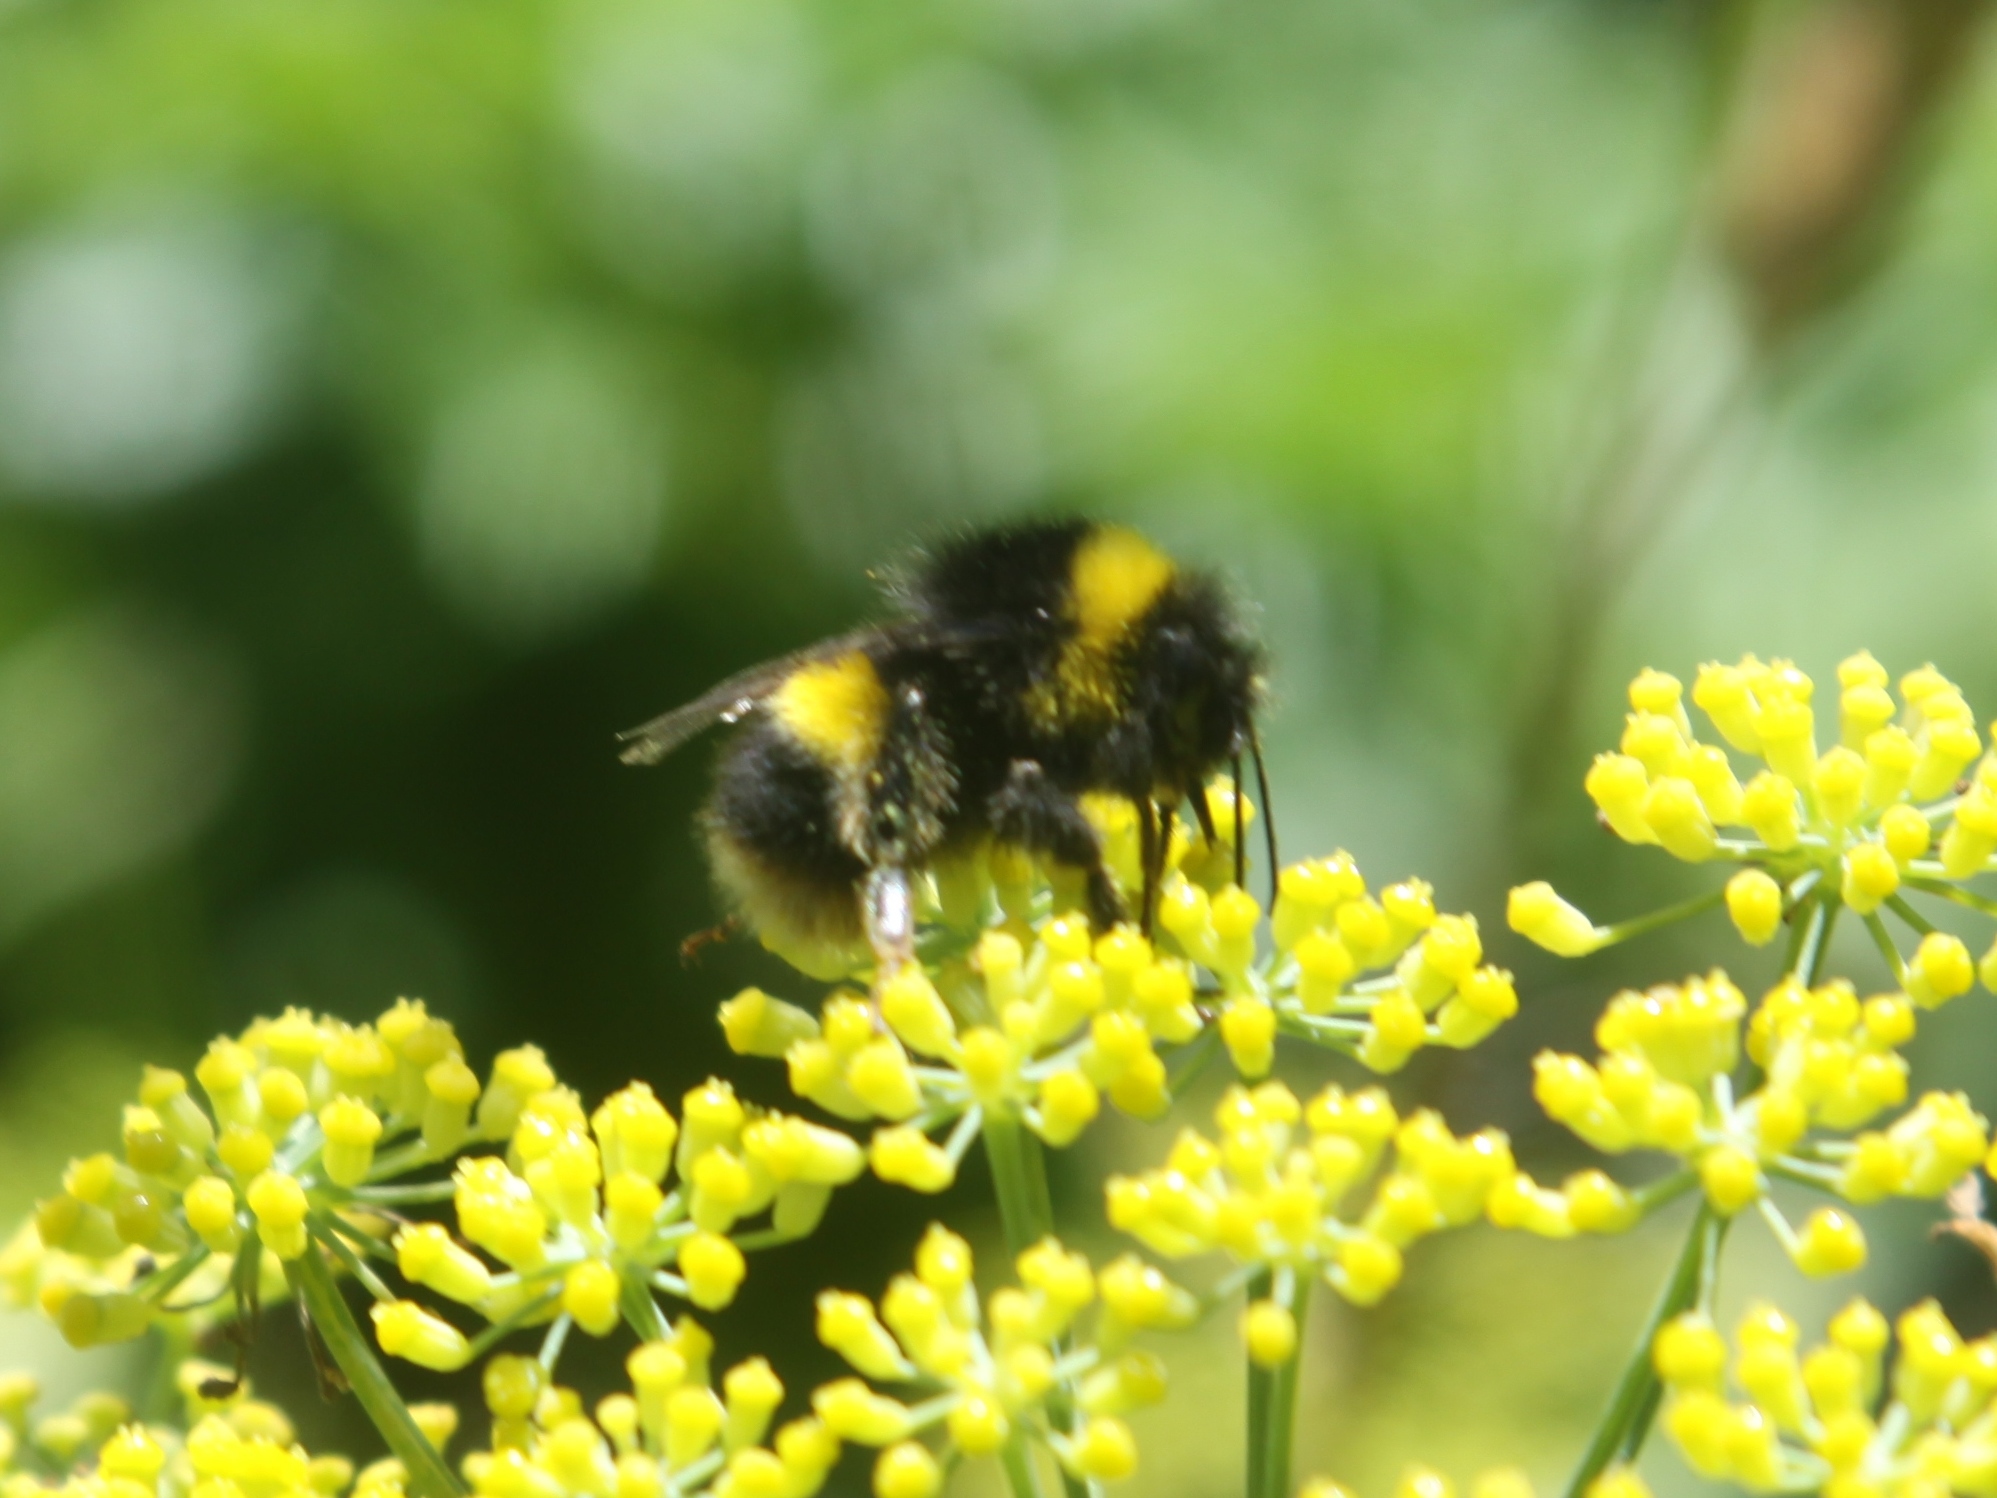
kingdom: Animalia
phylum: Arthropoda
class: Insecta
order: Hymenoptera
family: Apidae
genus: Bombus
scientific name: Bombus terrestris
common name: Buff-tailed bumblebee
